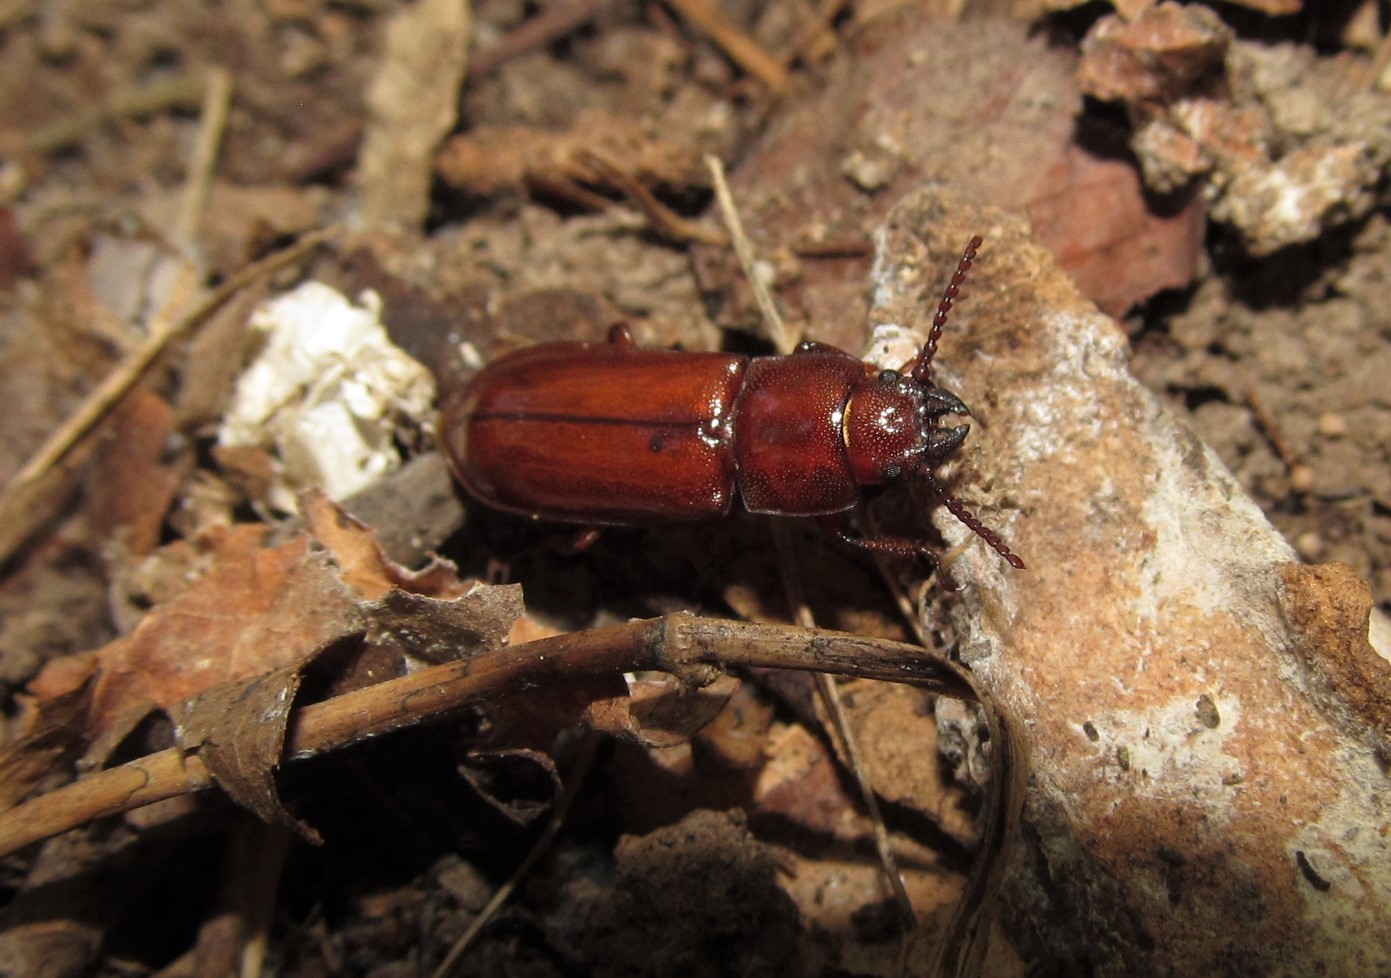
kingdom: Animalia
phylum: Arthropoda
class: Insecta
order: Coleoptera
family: Cerambycidae
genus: Neandra
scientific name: Neandra brunnea
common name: Pole borer
